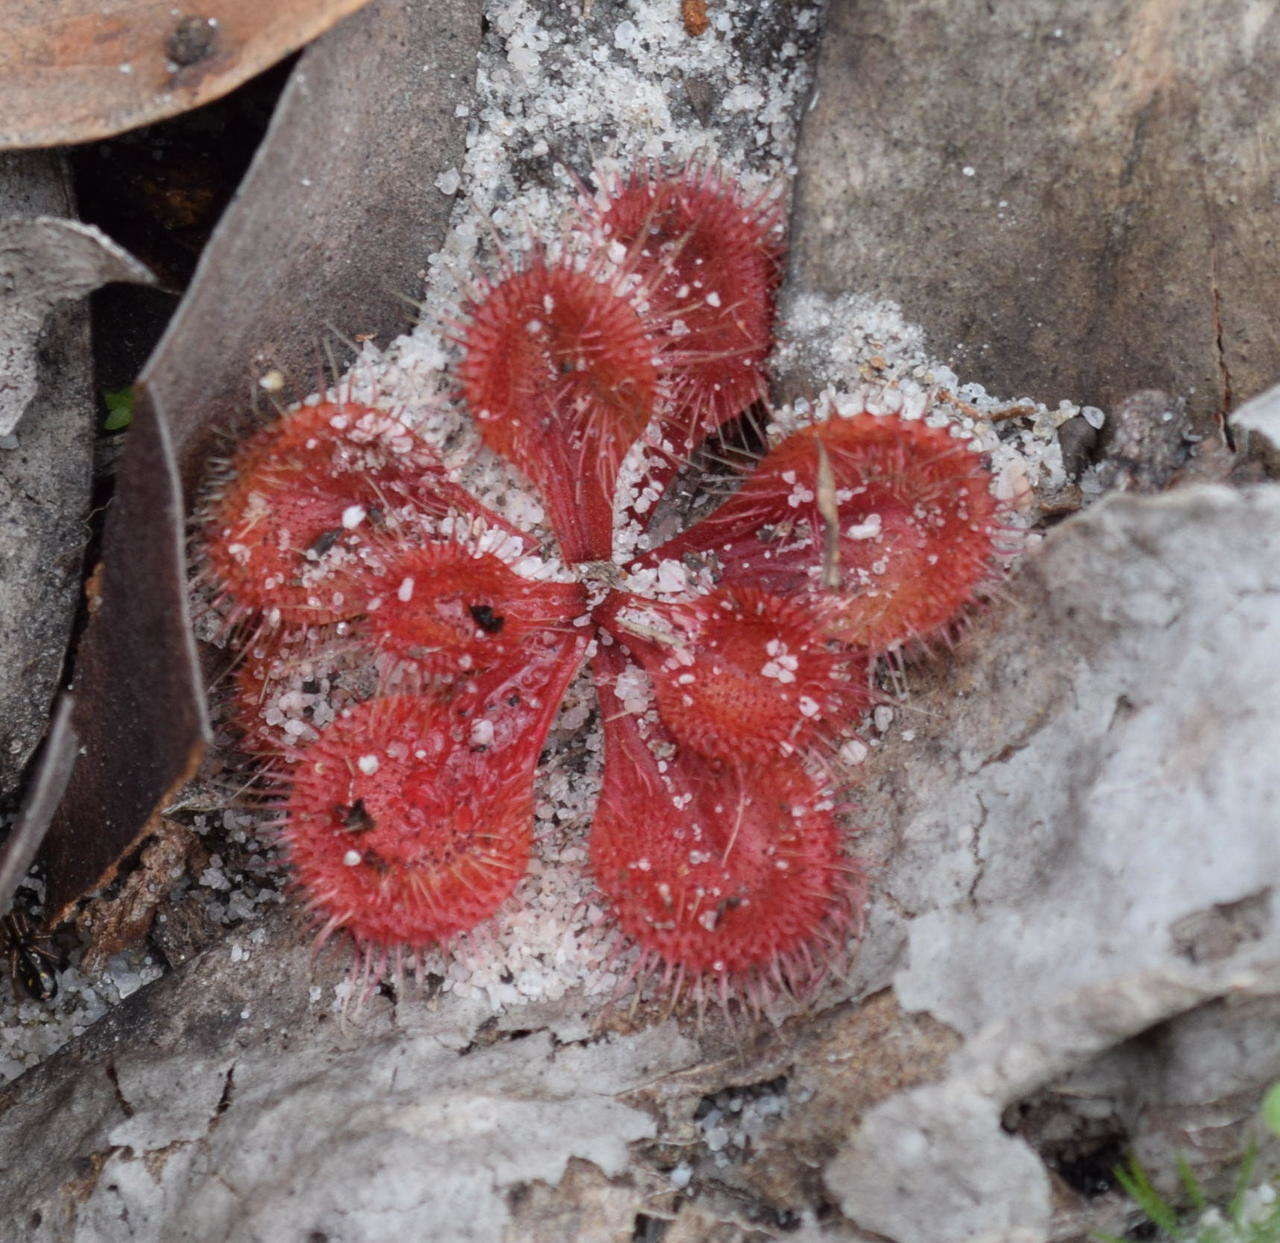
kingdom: Plantae
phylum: Tracheophyta
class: Magnoliopsida
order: Caryophyllales
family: Droseraceae
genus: Drosera
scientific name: Drosera aberrans
